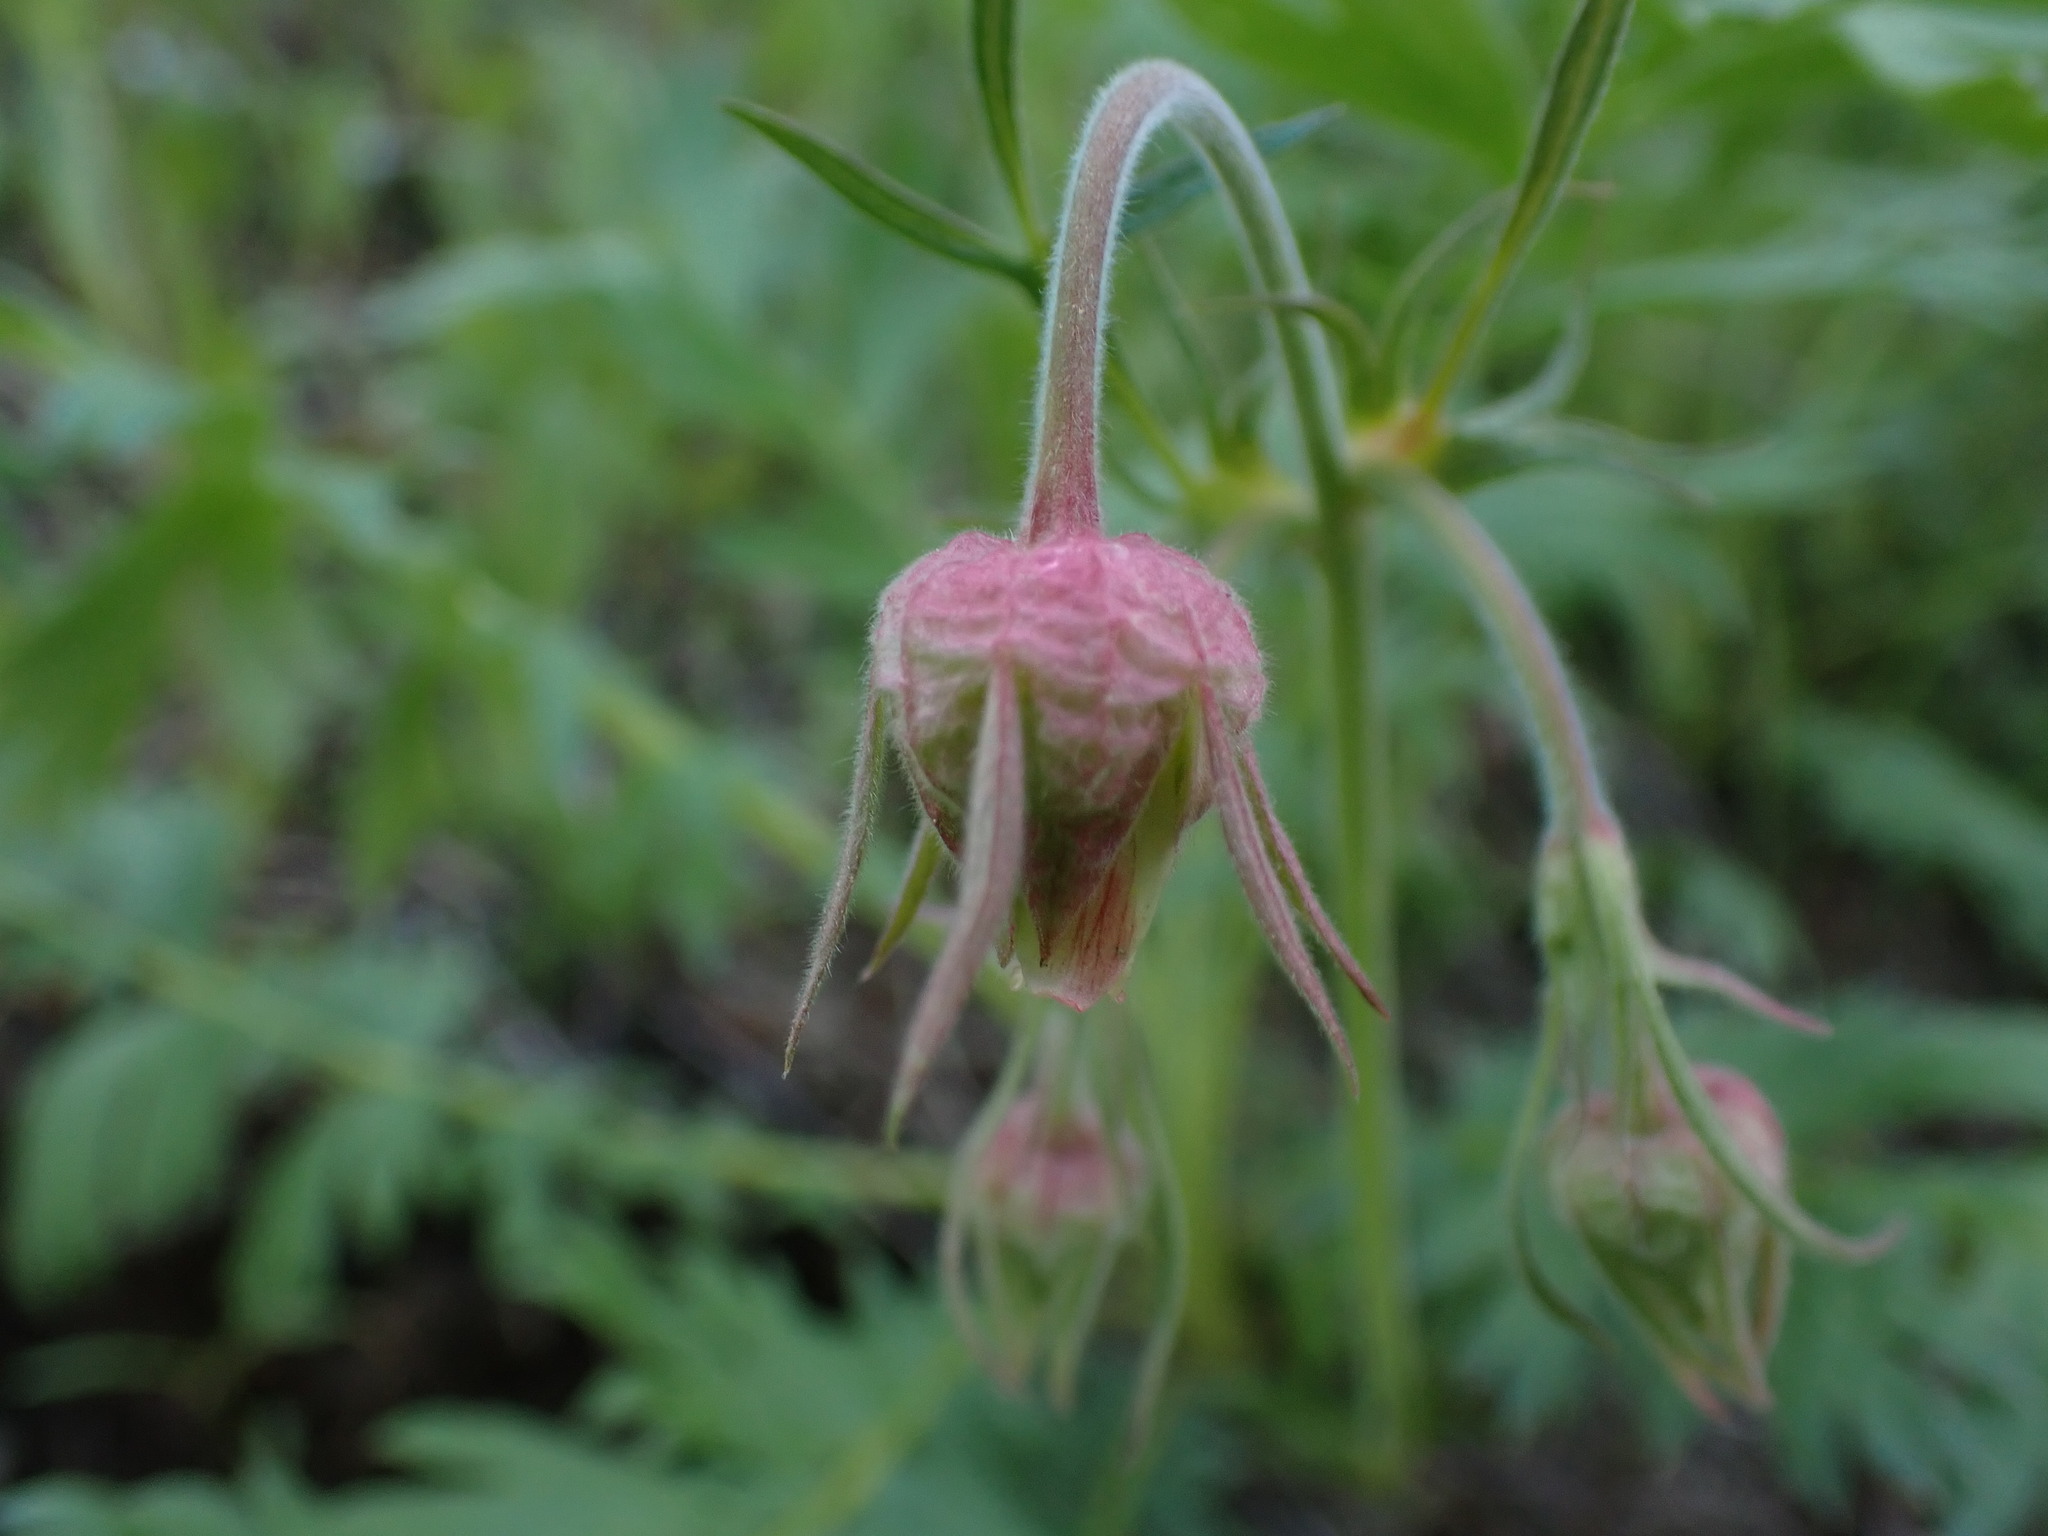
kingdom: Plantae
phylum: Tracheophyta
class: Magnoliopsida
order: Rosales
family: Rosaceae
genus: Geum
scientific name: Geum triflorum
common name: Old man's whiskers
